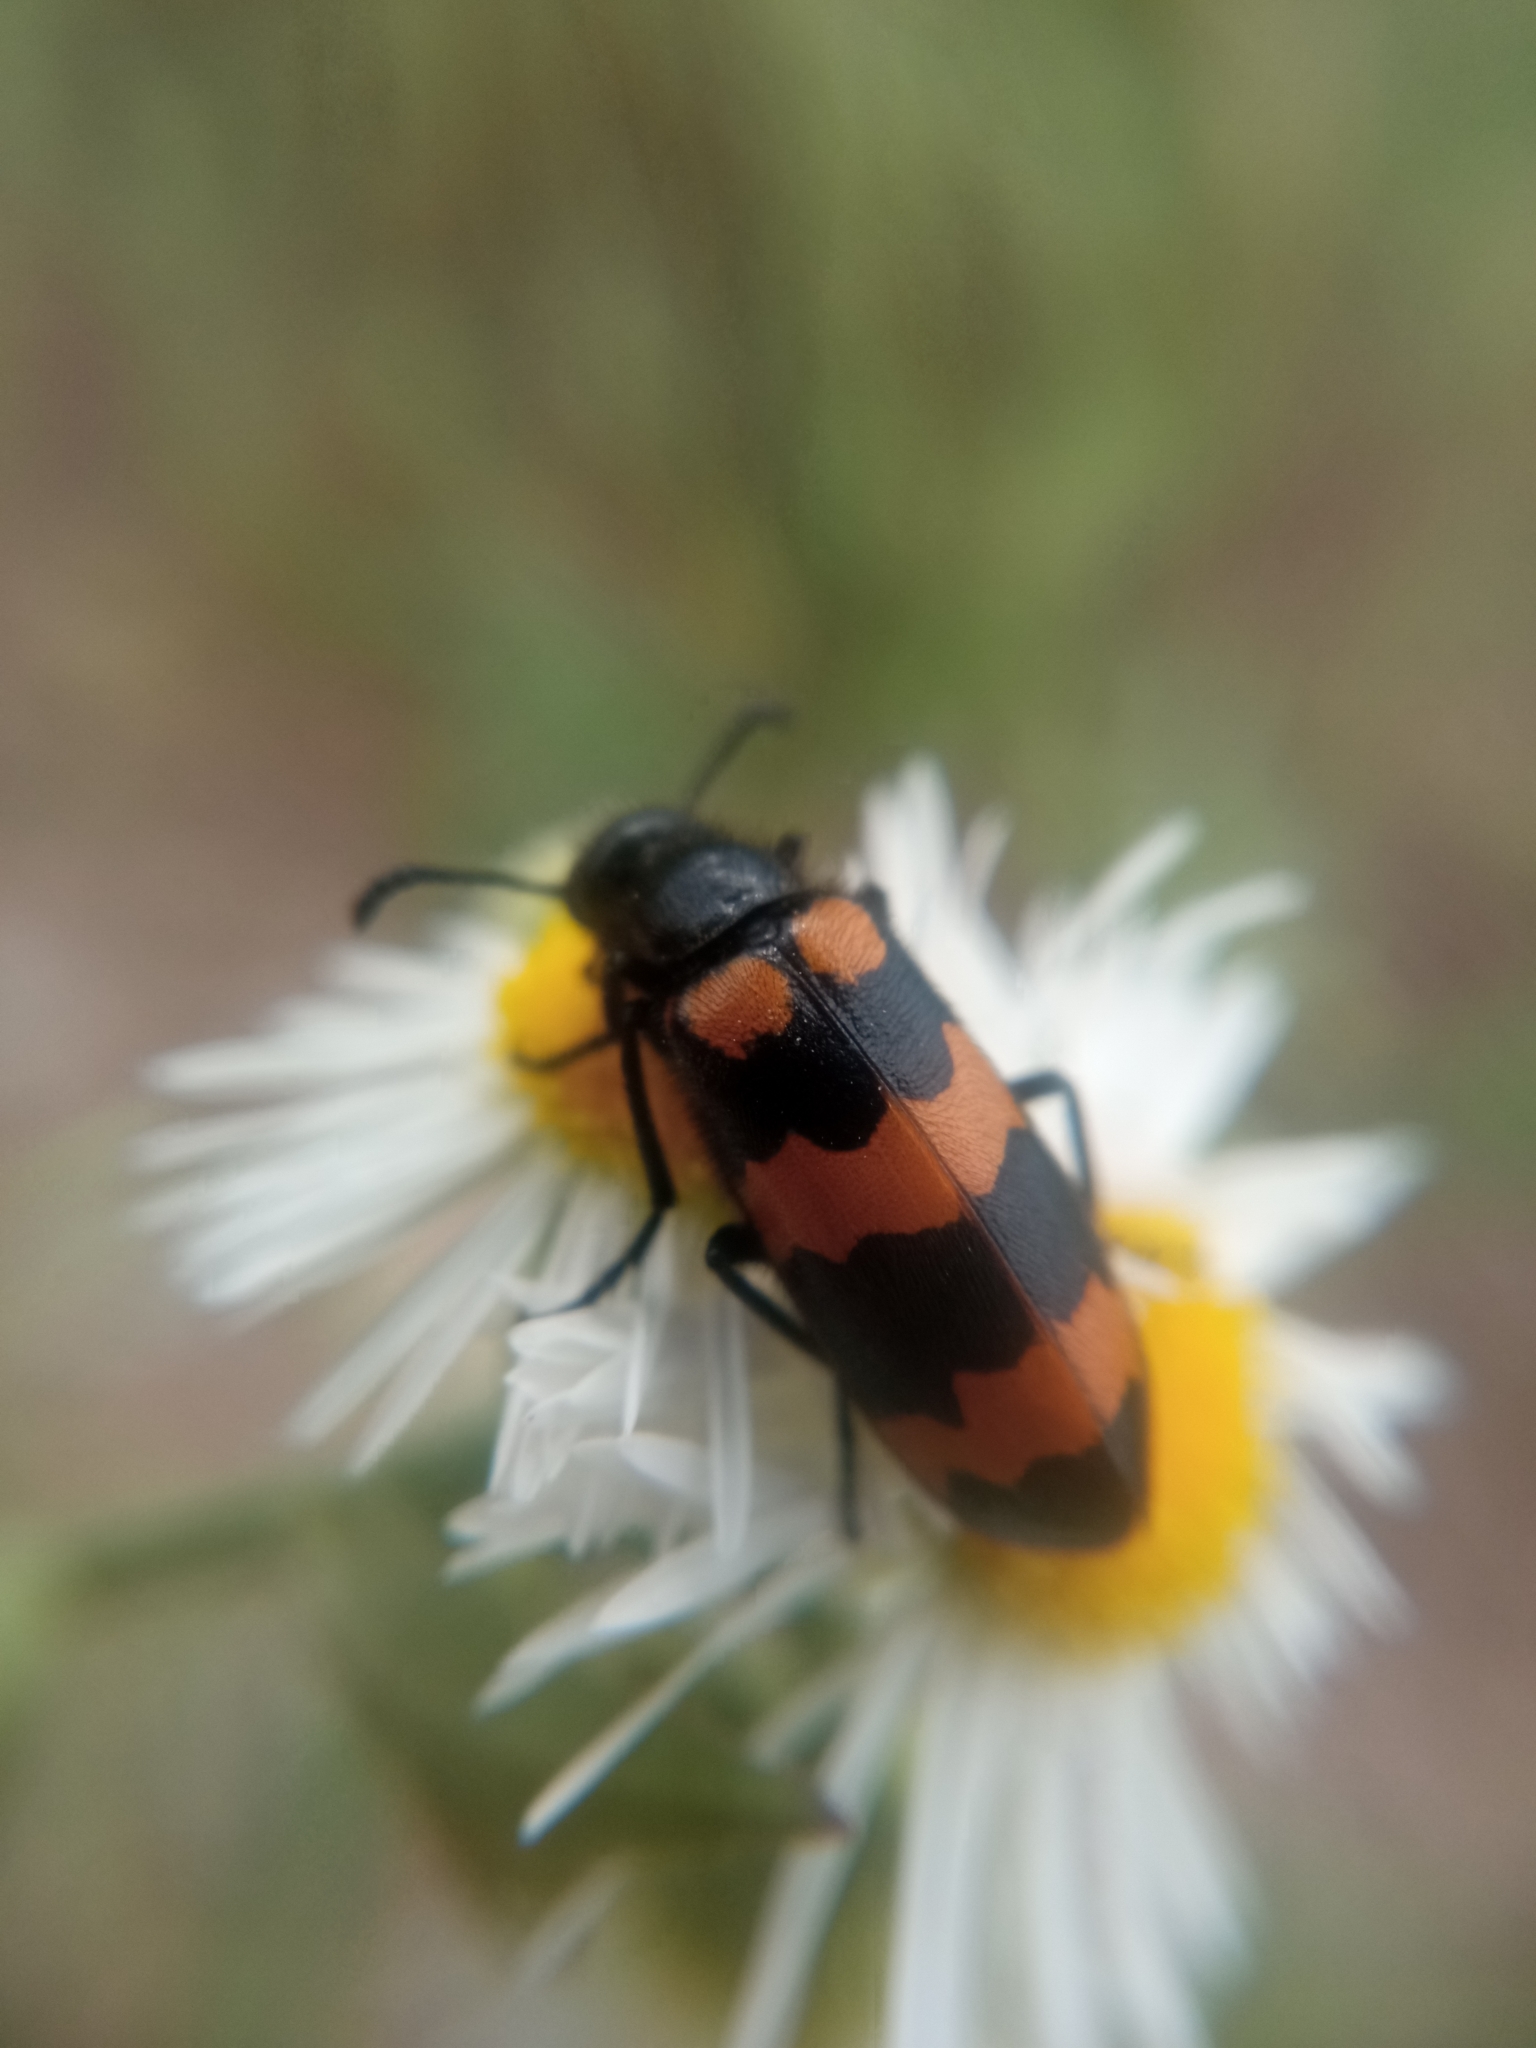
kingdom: Animalia
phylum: Arthropoda
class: Insecta
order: Coleoptera
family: Meloidae
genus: Mylabris
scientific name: Mylabris variabilis
